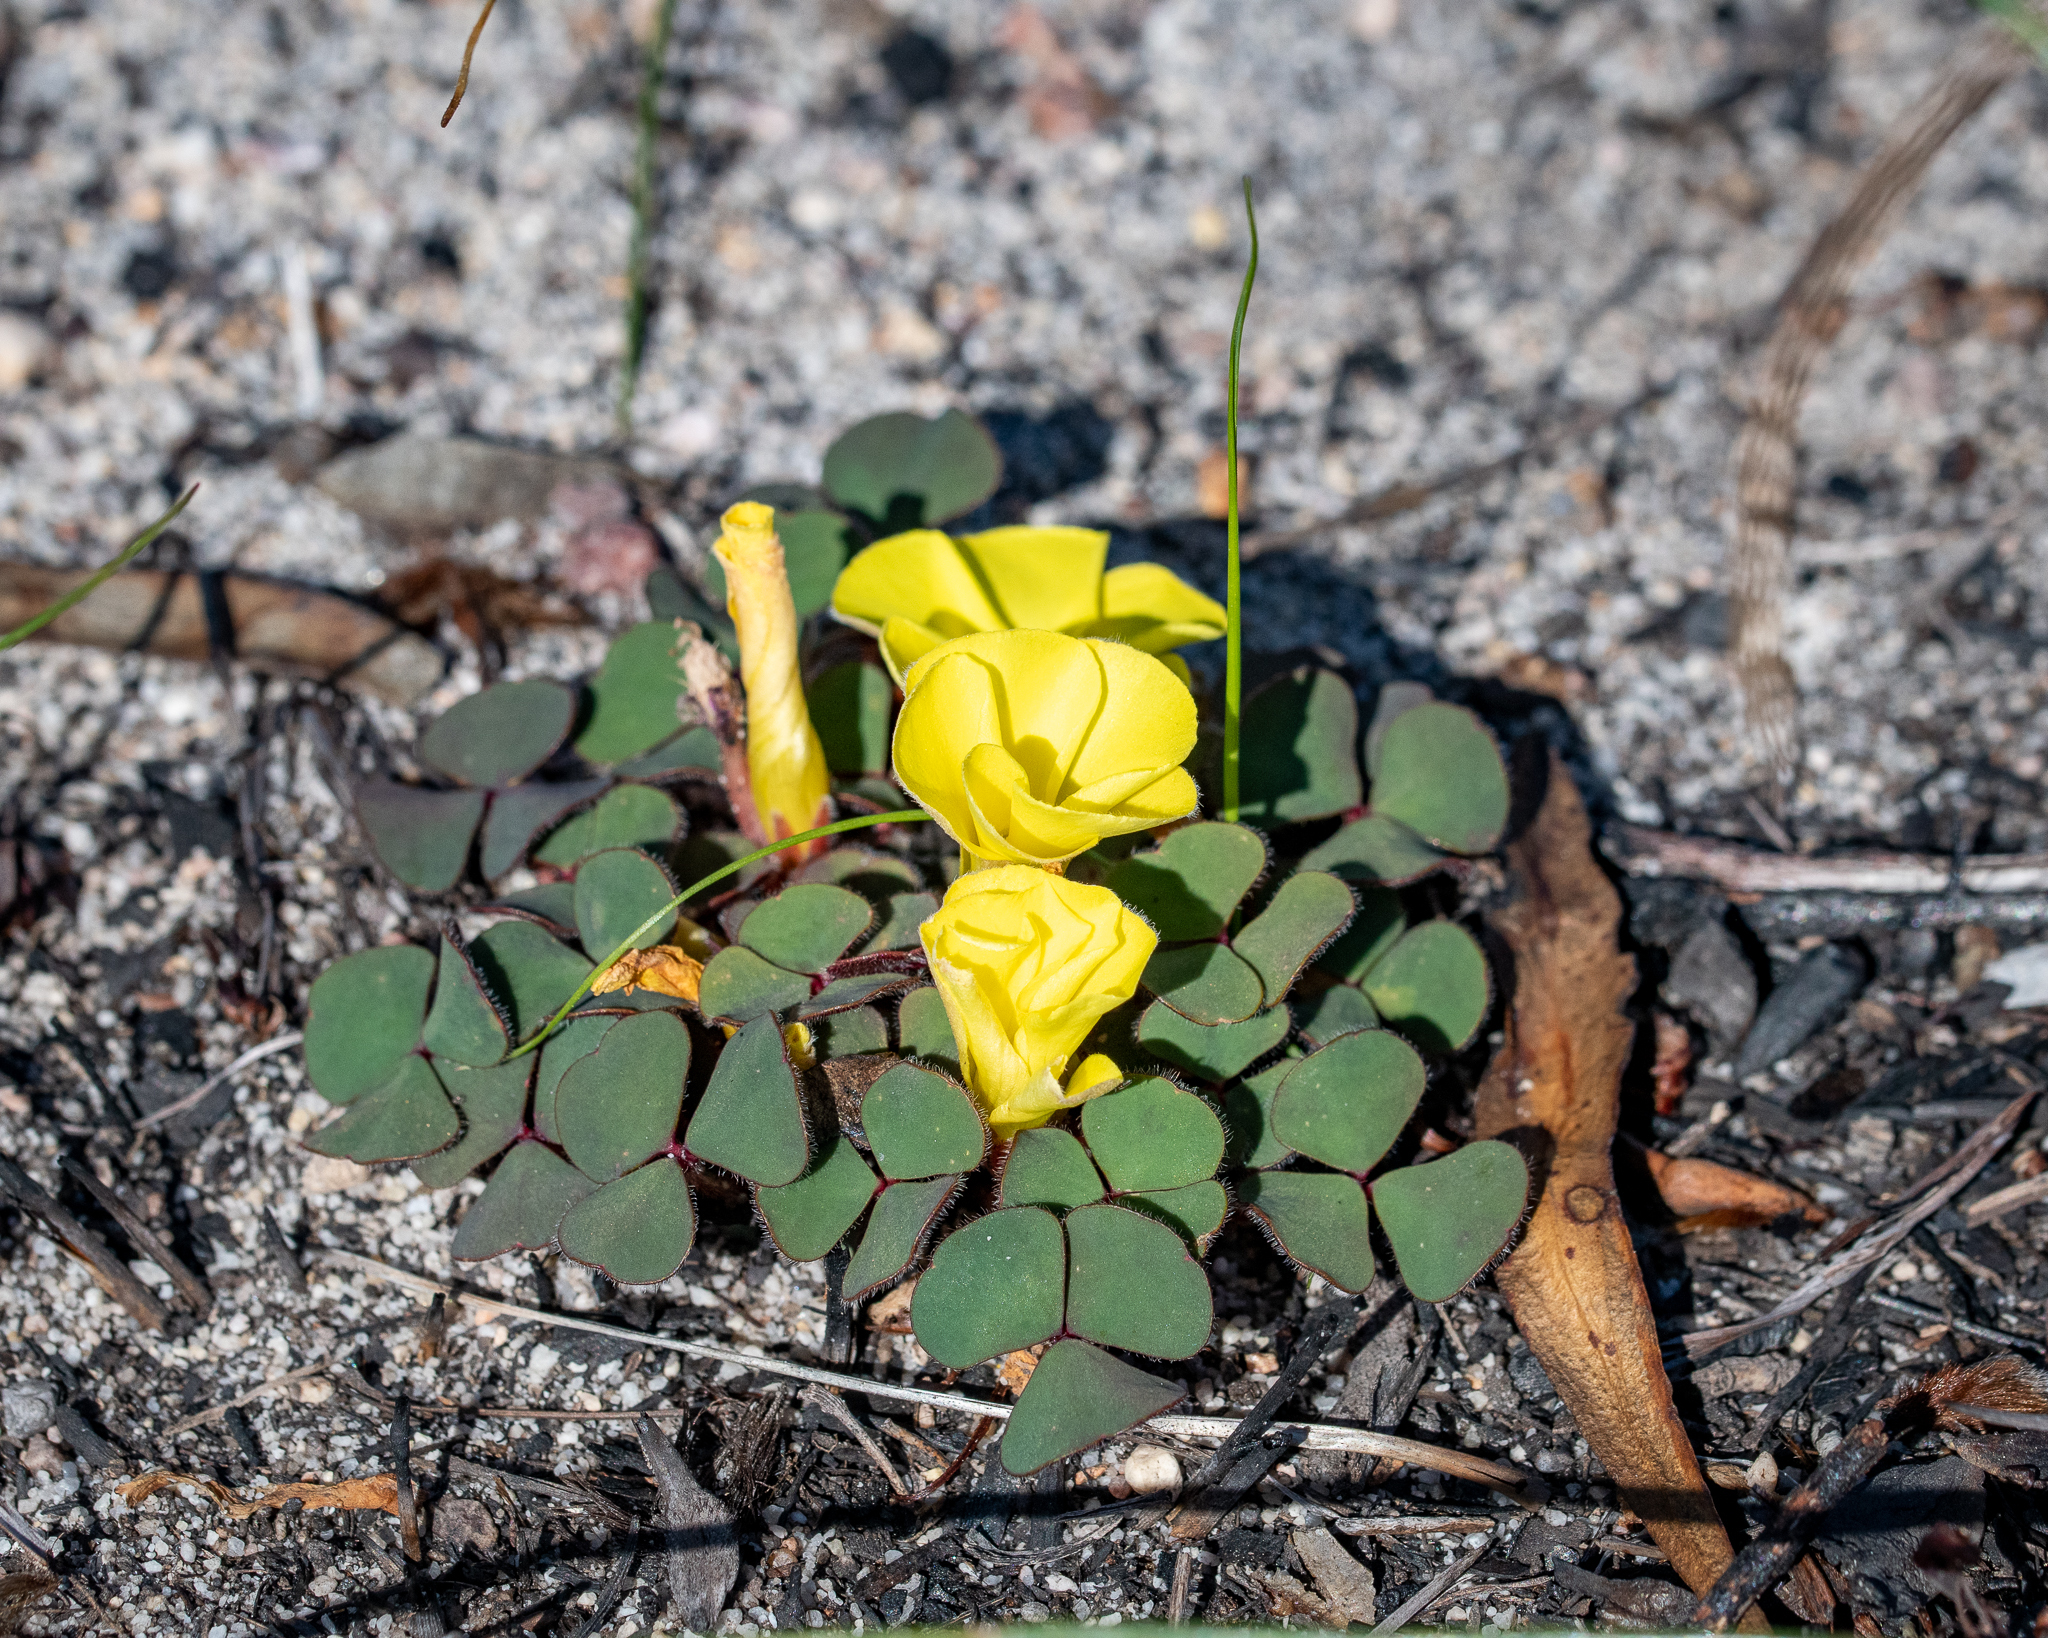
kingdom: Plantae
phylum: Tracheophyta
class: Magnoliopsida
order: Oxalidales
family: Oxalidaceae
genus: Oxalis
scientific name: Oxalis luteola
